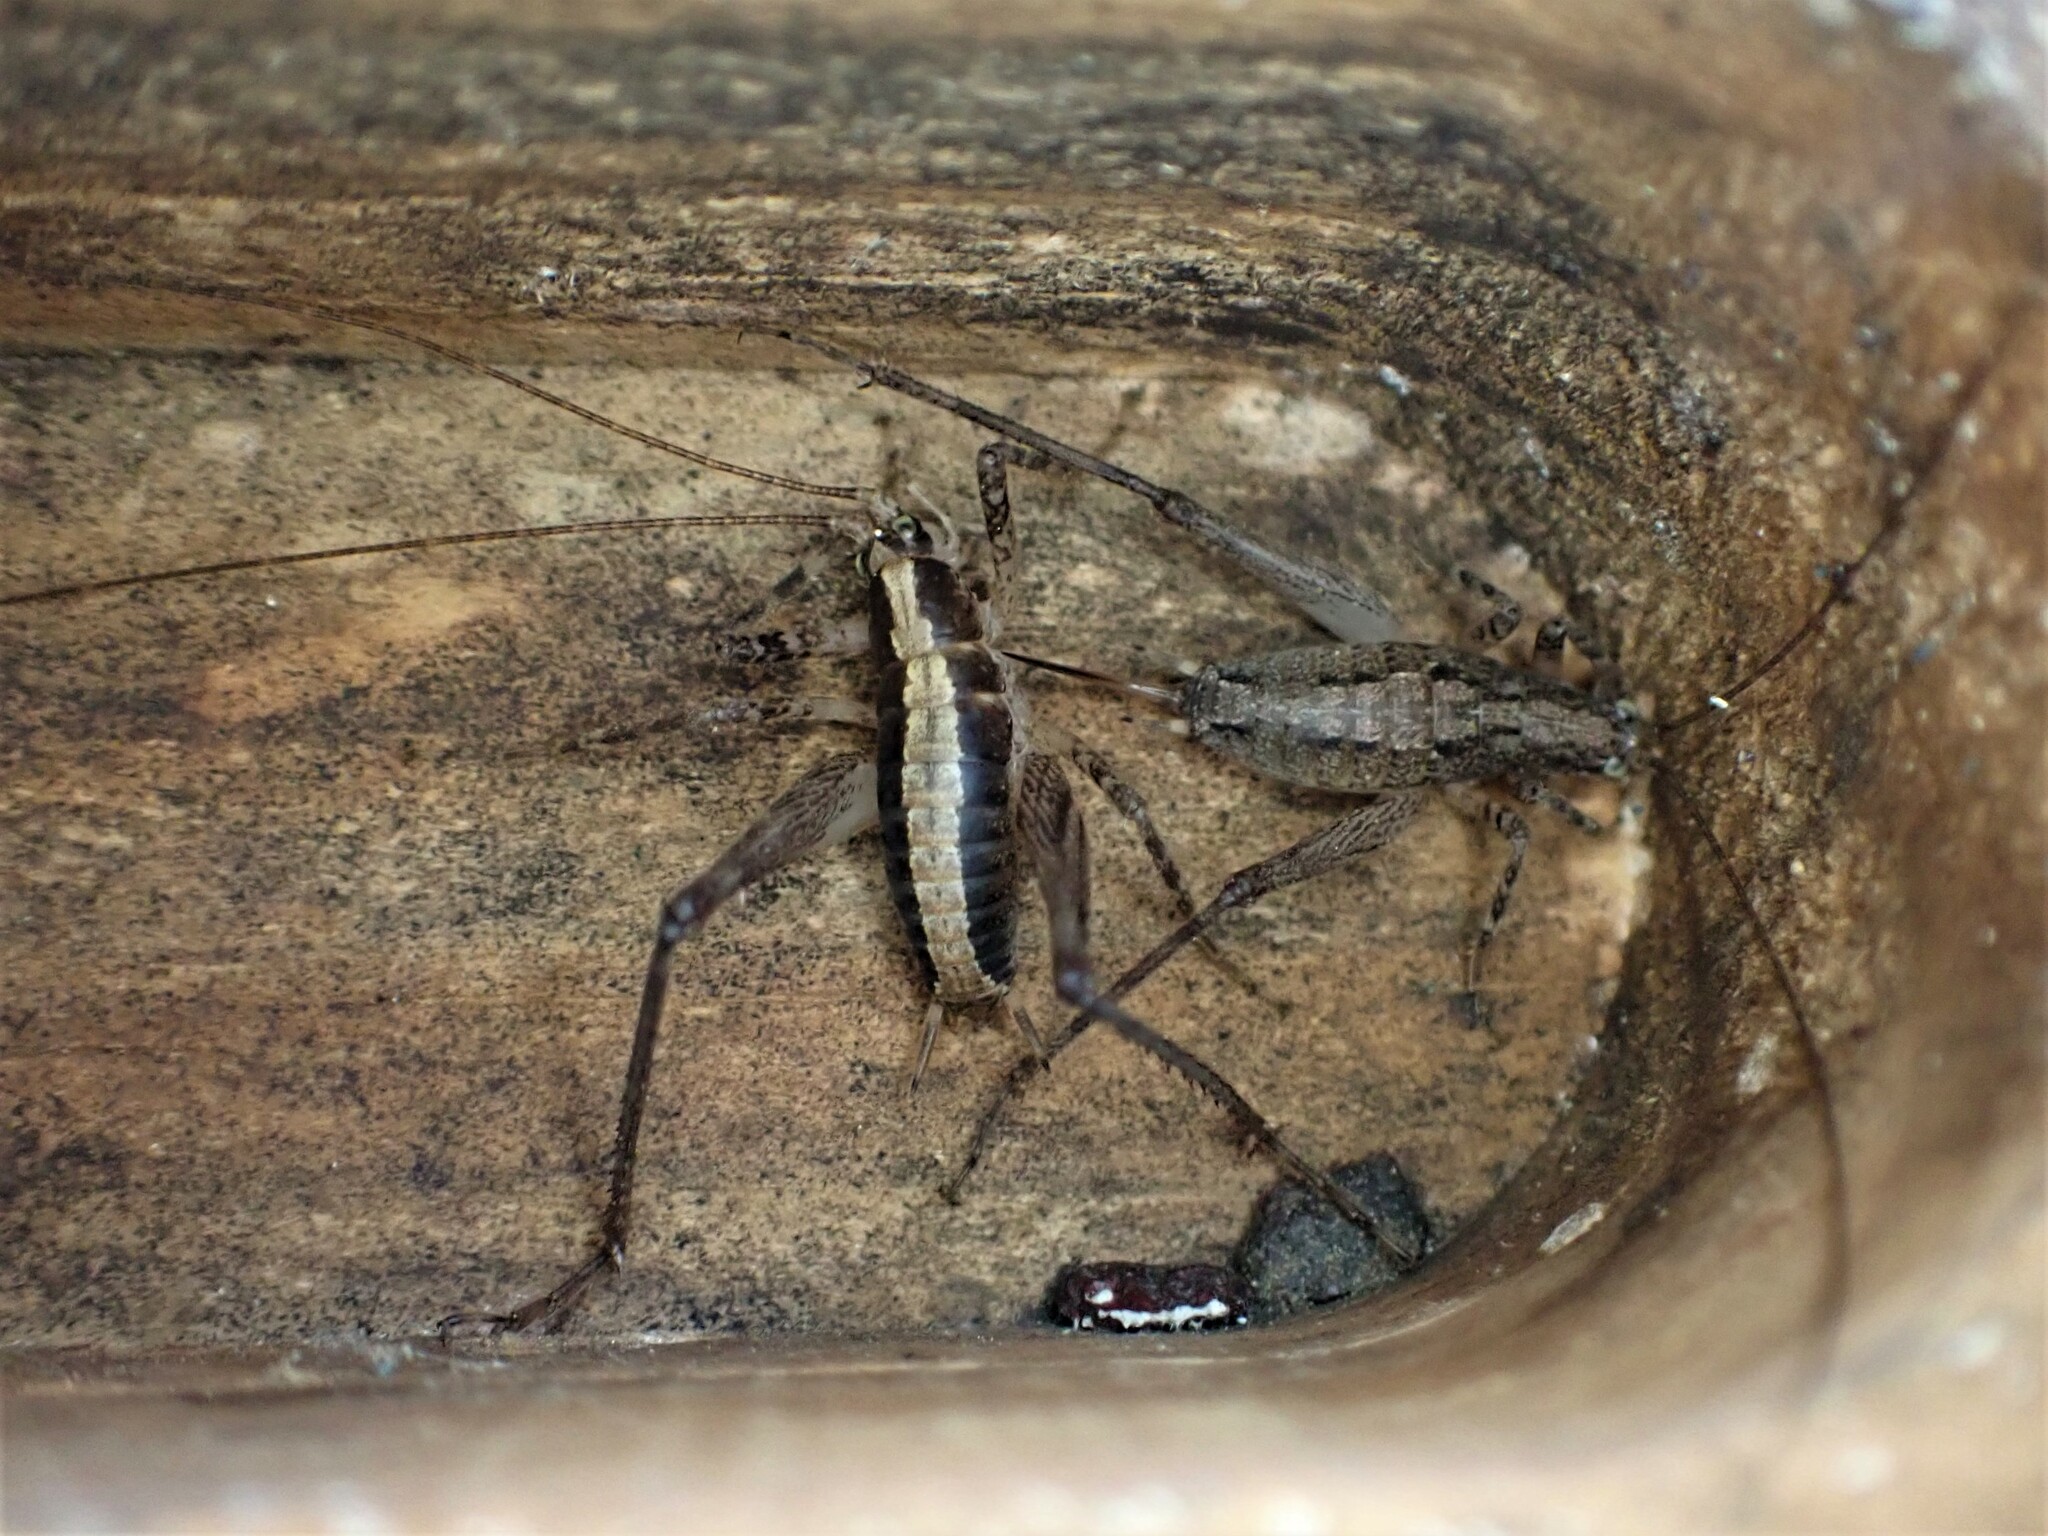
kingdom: Animalia
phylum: Arthropoda
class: Insecta
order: Orthoptera
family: Rhaphidophoridae
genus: Isoplectron
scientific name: Isoplectron armatum
